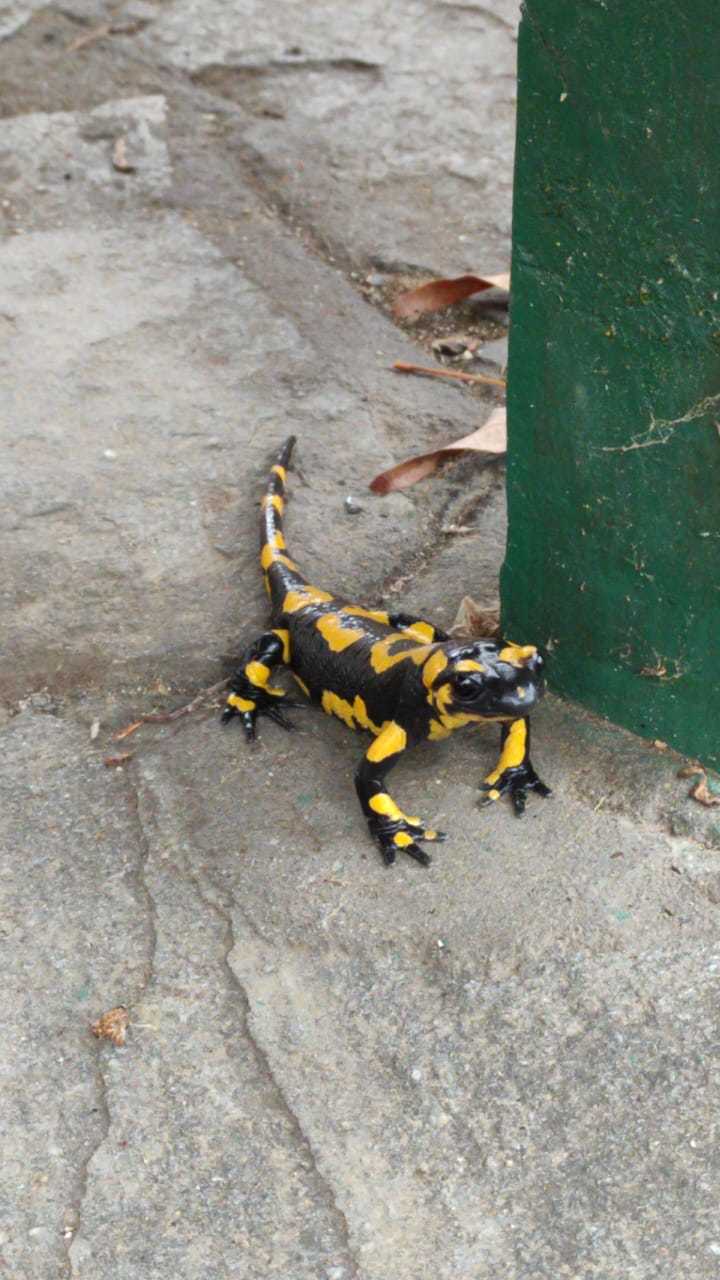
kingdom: Animalia
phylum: Chordata
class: Amphibia
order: Caudata
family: Salamandridae
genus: Salamandra
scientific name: Salamandra salamandra
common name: Fire salamander
